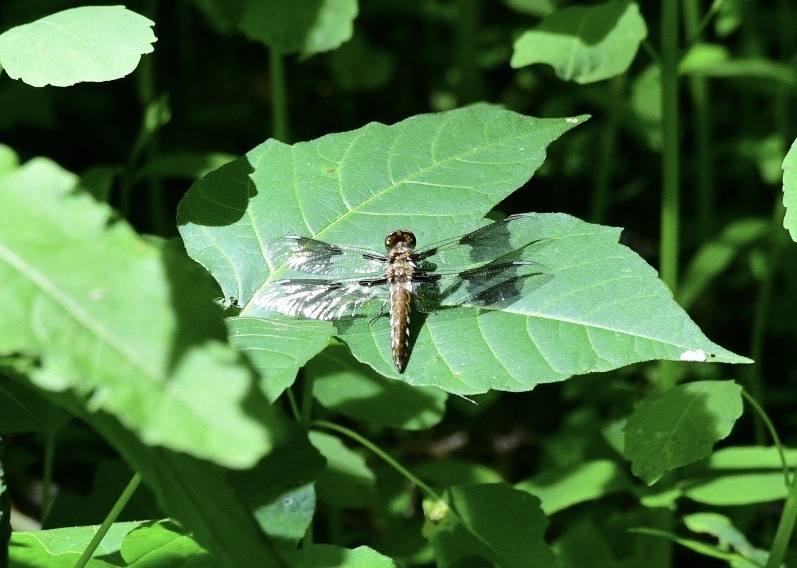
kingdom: Animalia
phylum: Arthropoda
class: Insecta
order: Odonata
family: Libellulidae
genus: Plathemis
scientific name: Plathemis lydia
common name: Common whitetail
